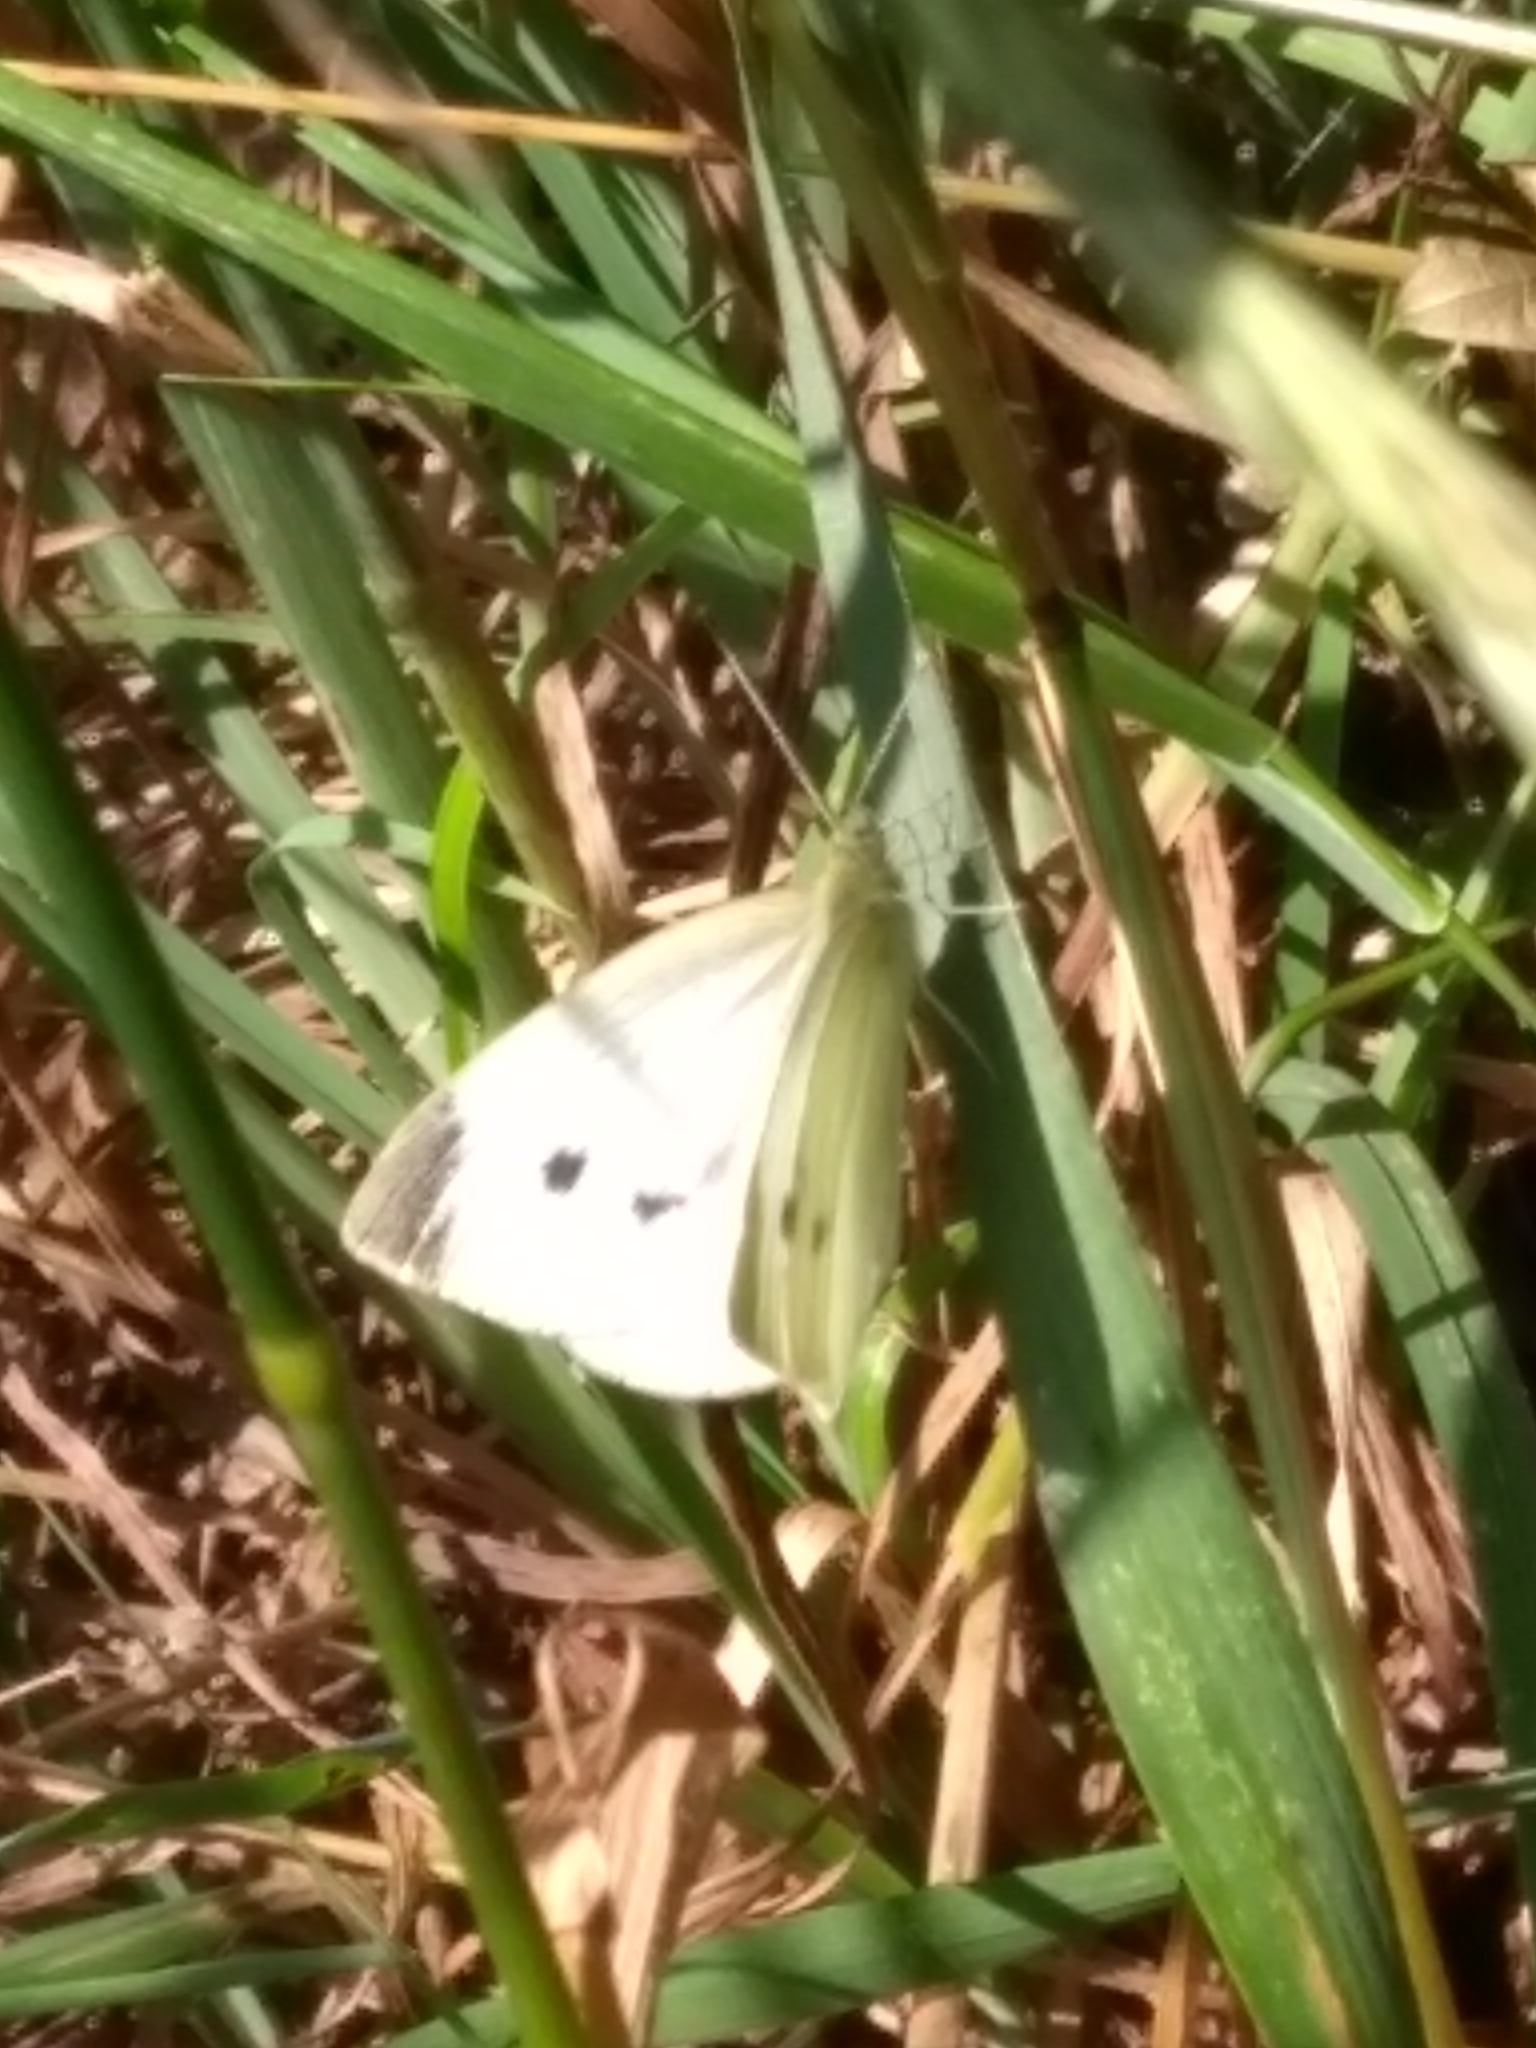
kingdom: Animalia
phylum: Arthropoda
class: Insecta
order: Lepidoptera
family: Pieridae
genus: Pieris
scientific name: Pieris rapae
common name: Small white
